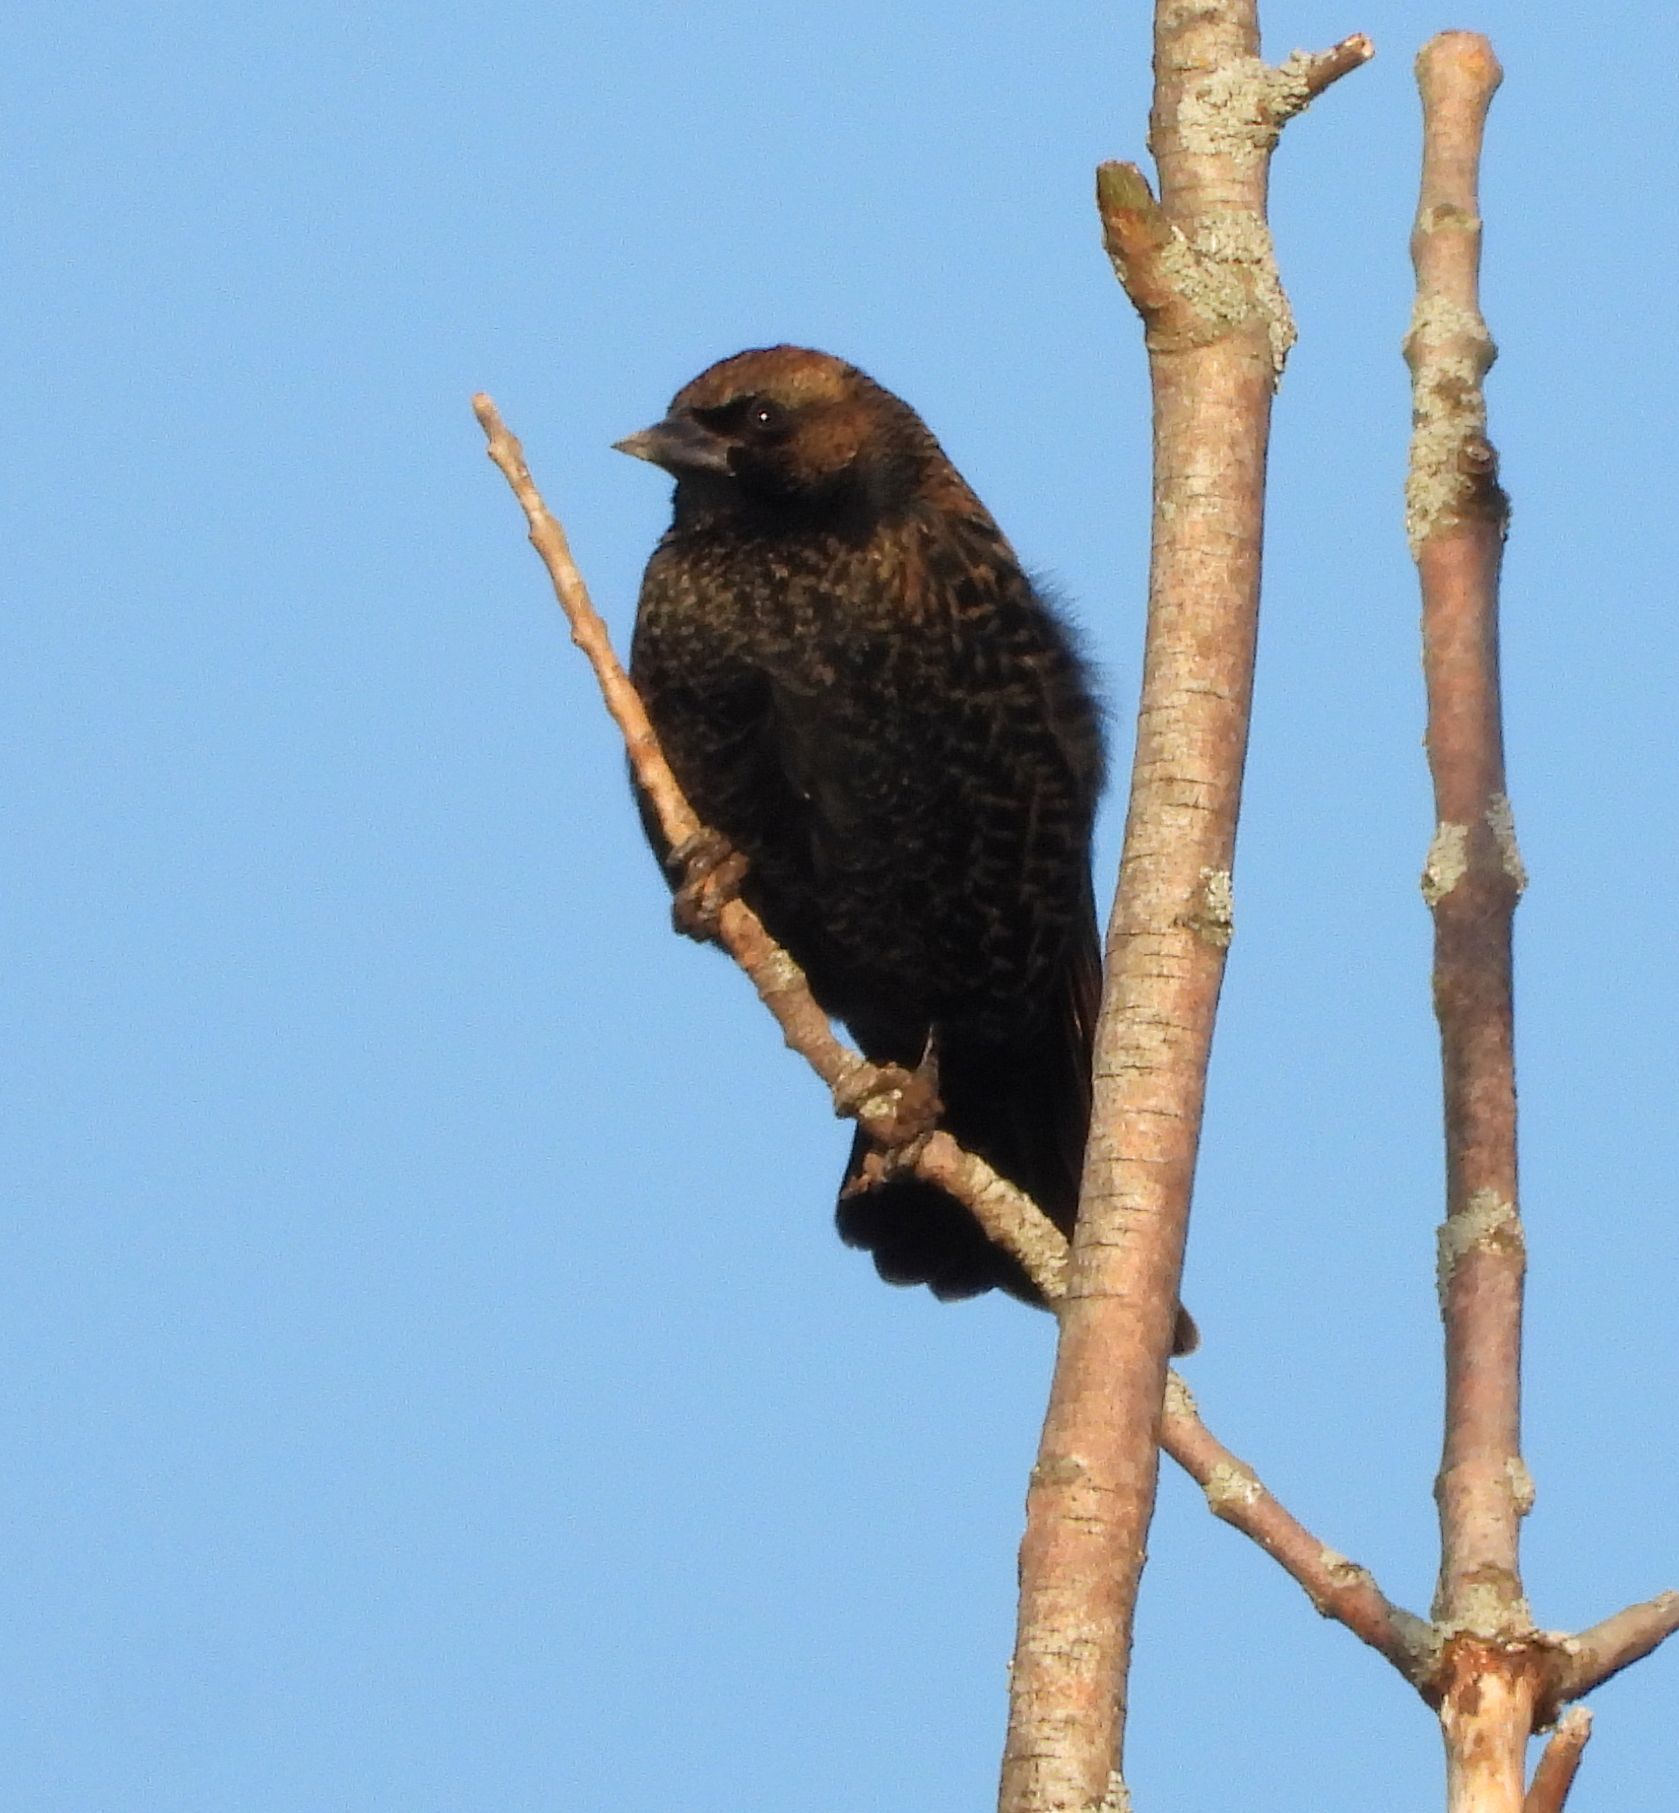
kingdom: Animalia
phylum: Chordata
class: Aves
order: Passeriformes
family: Icteridae
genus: Agelaius
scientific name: Agelaius phoeniceus
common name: Red-winged blackbird
